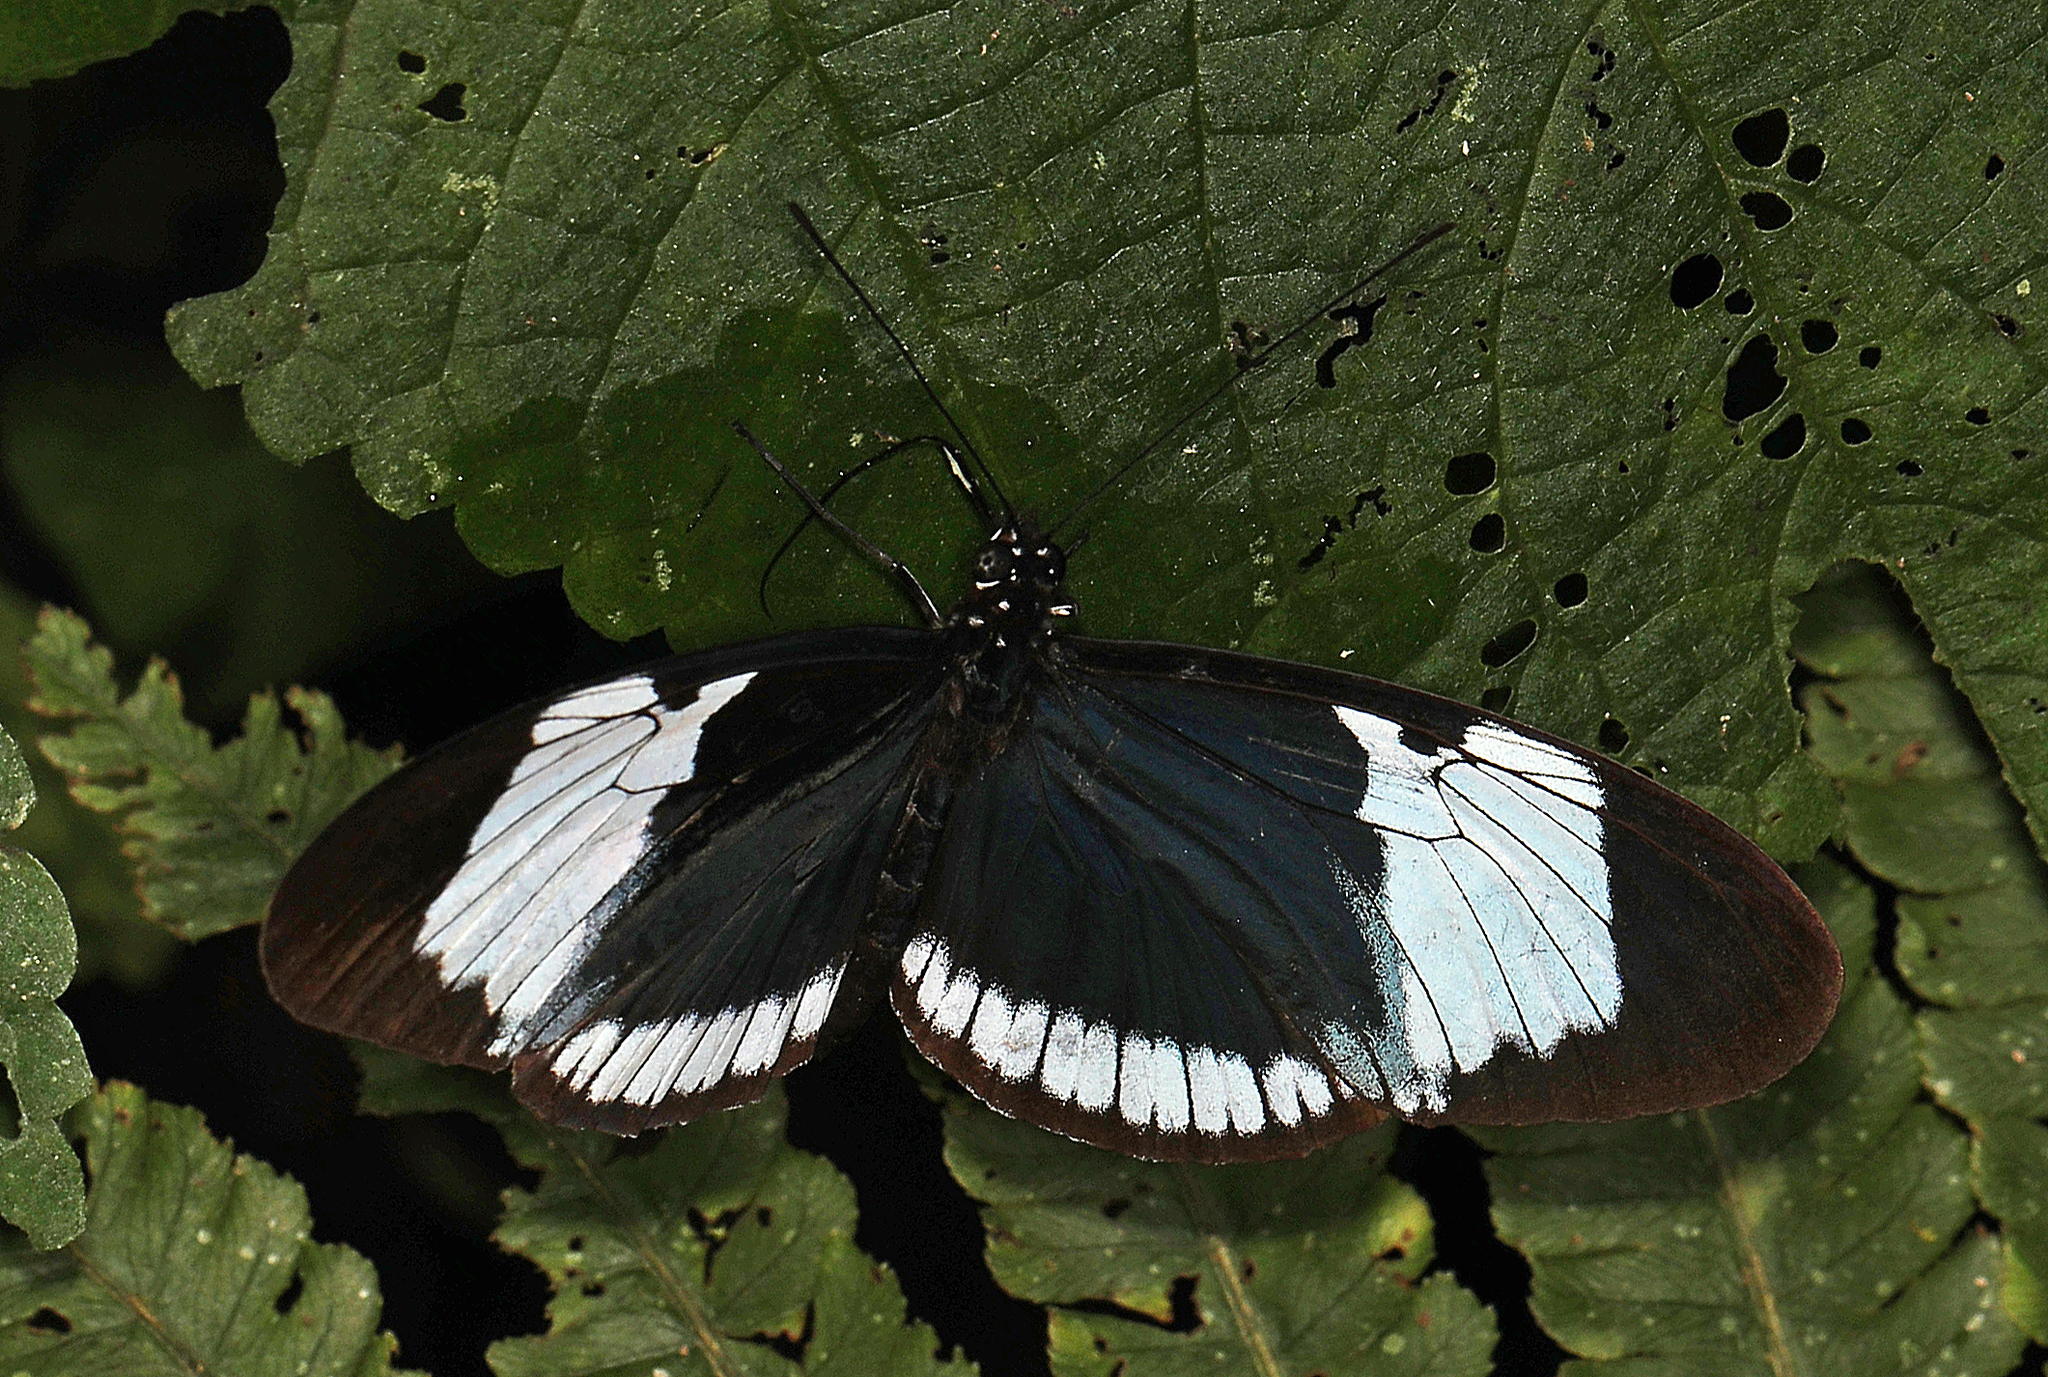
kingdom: Animalia
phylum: Arthropoda
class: Insecta
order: Lepidoptera
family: Nymphalidae
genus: Heliconius
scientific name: Heliconius cydno
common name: Cydno longwing
